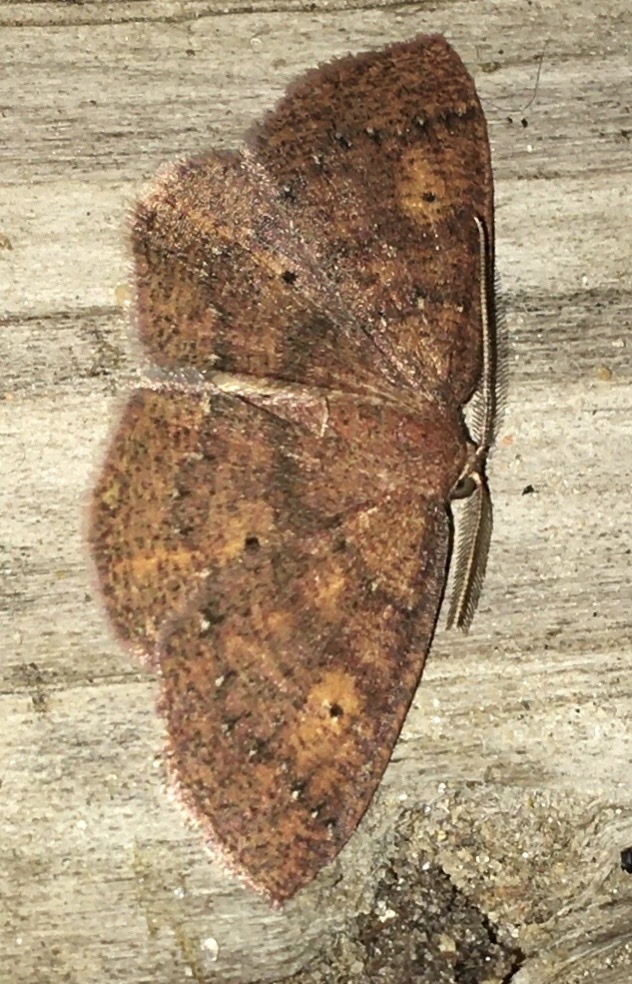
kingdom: Animalia
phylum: Arthropoda
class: Insecta
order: Lepidoptera
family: Geometridae
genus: Ilexia
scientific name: Ilexia intractata
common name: Black-dotted ruddy moth
